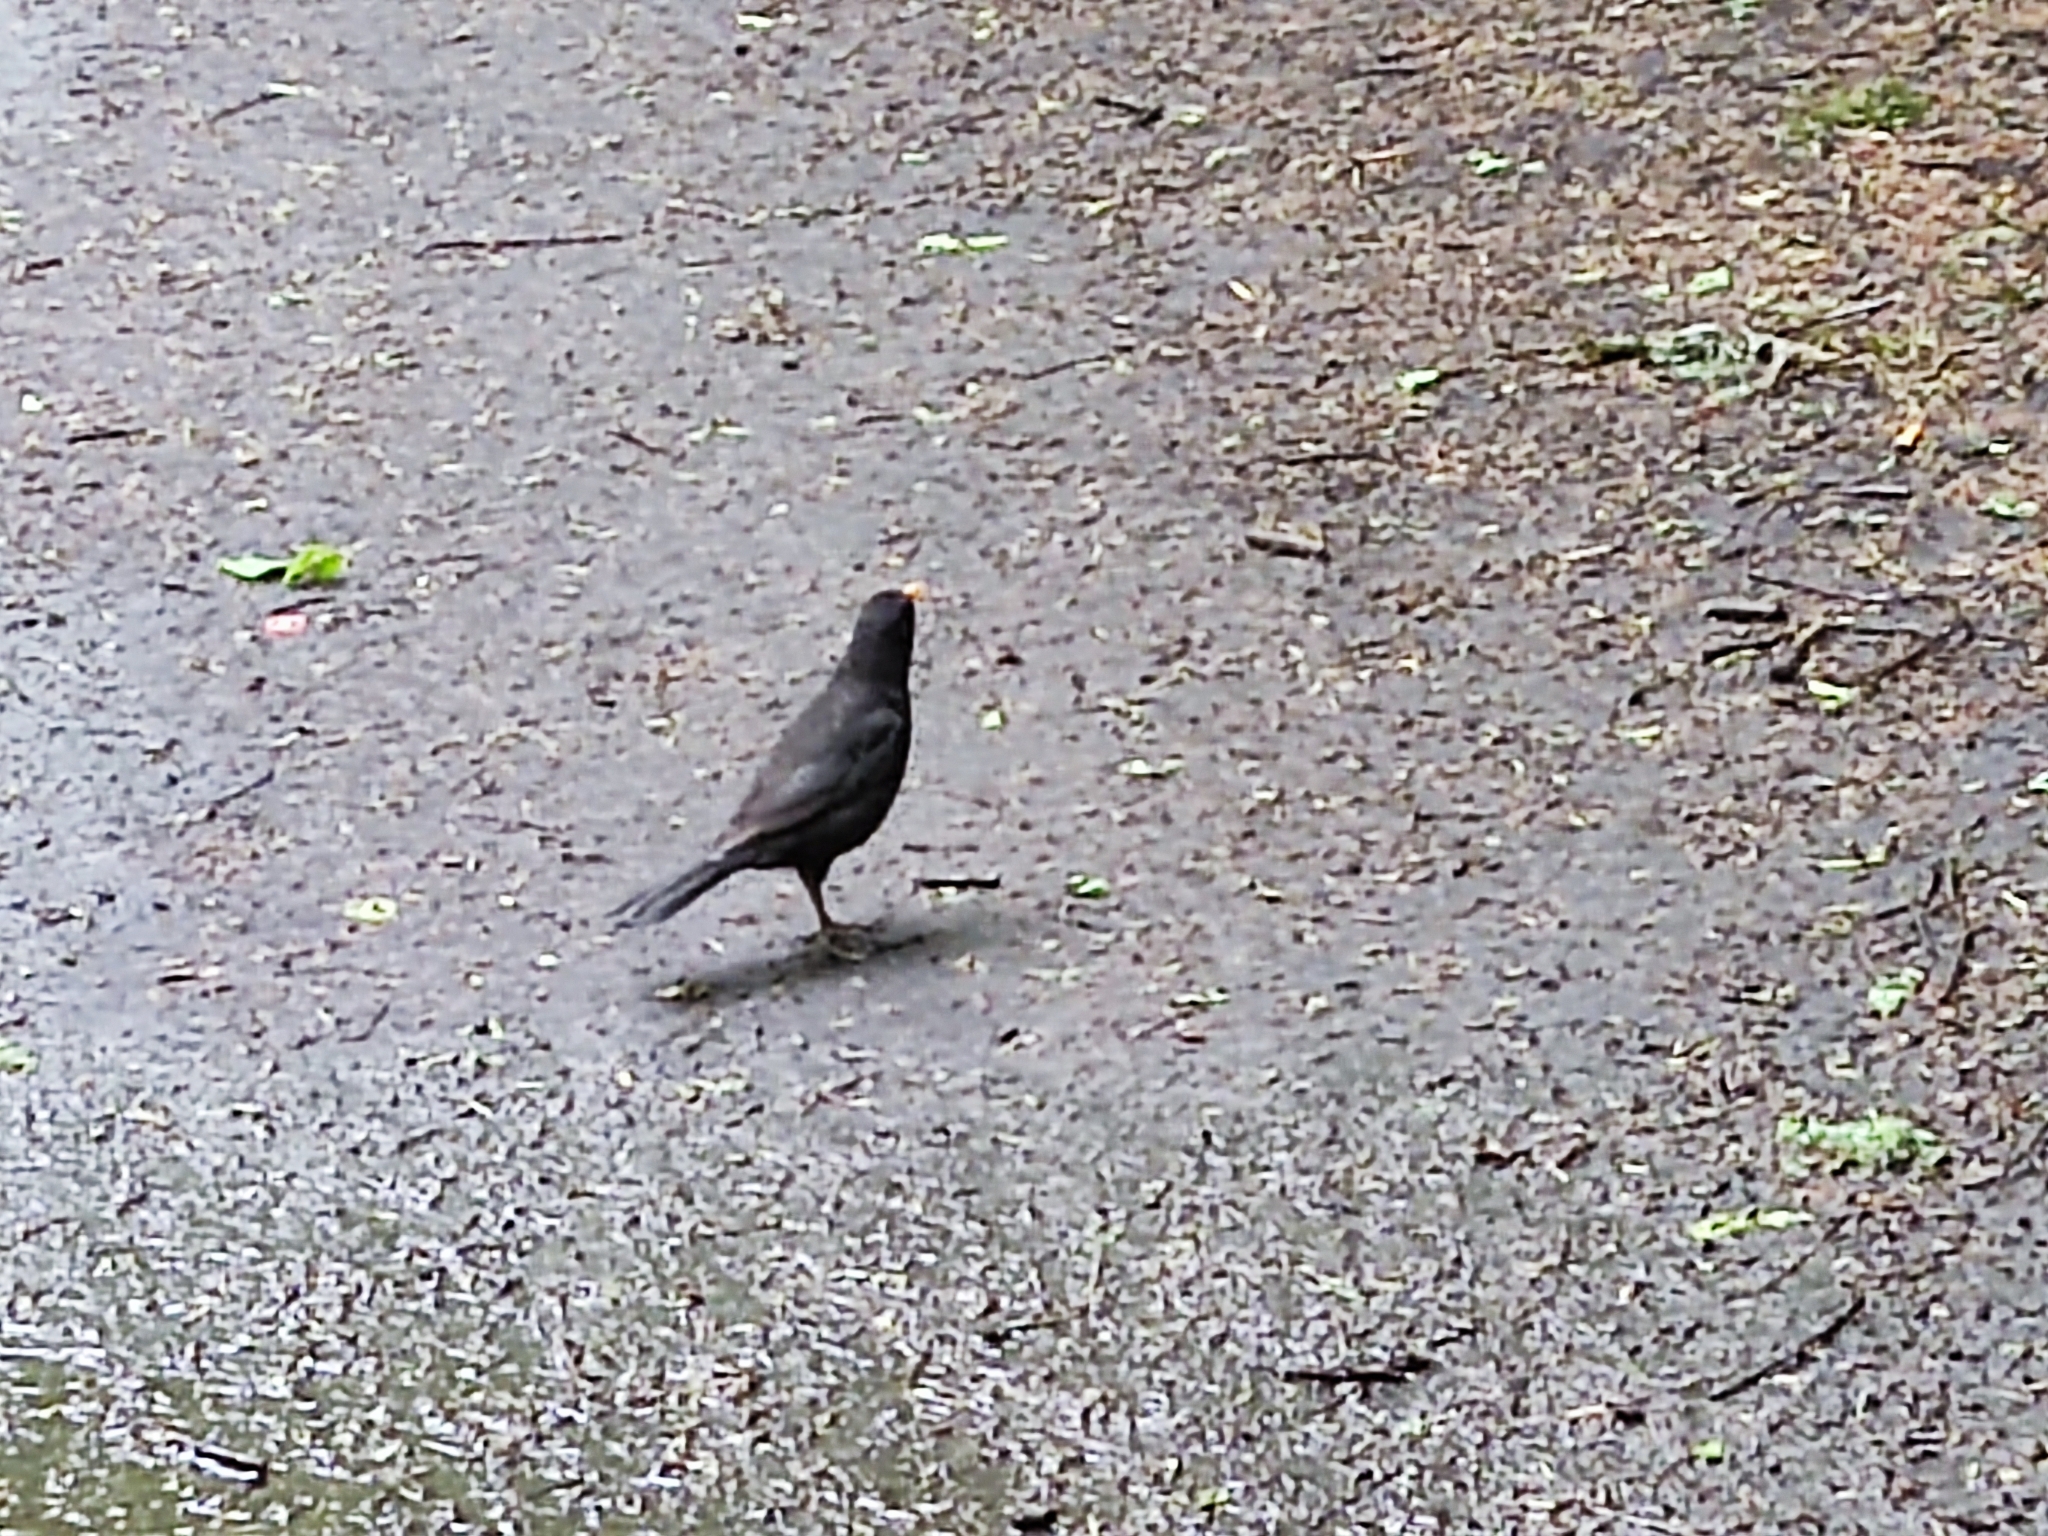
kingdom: Animalia
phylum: Chordata
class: Aves
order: Passeriformes
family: Turdidae
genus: Turdus
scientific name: Turdus merula
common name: Common blackbird
